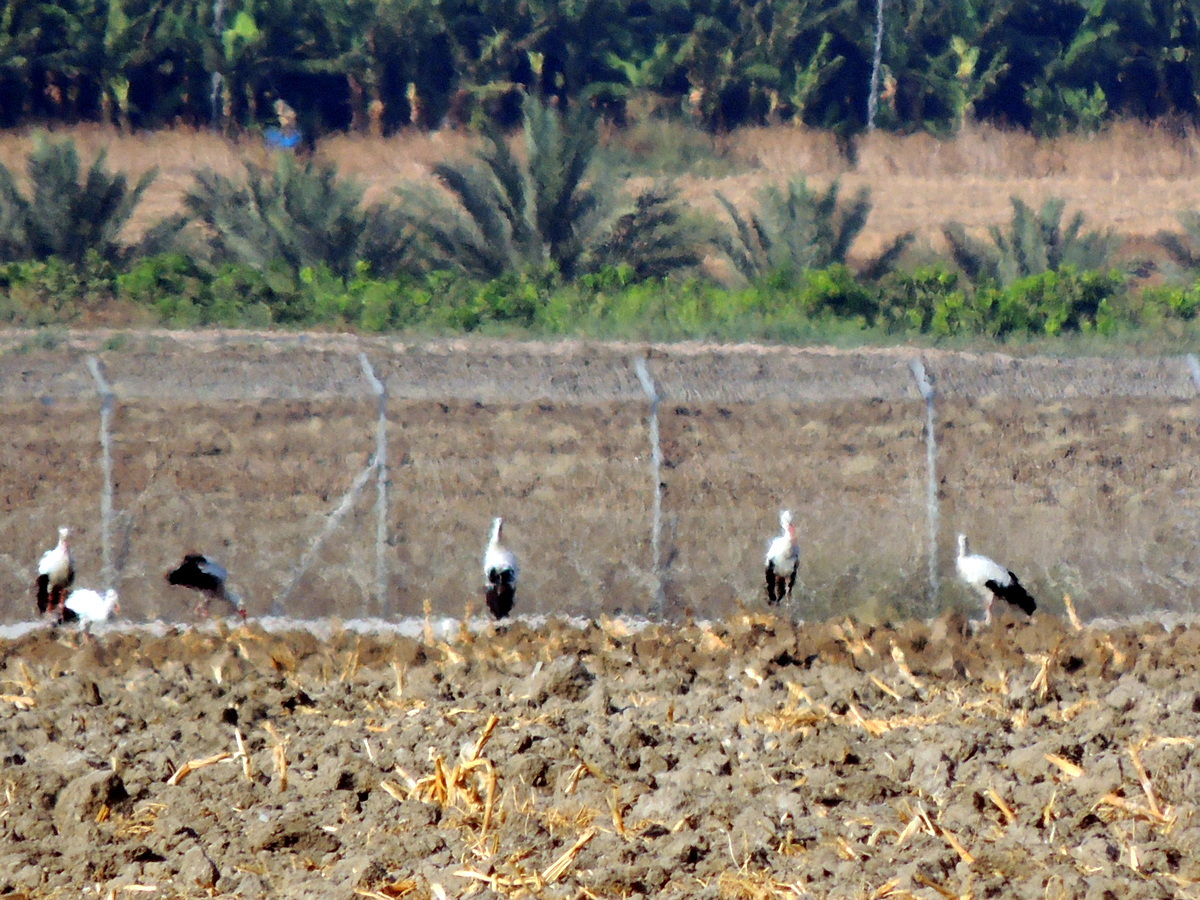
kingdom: Animalia
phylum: Chordata
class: Aves
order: Ciconiiformes
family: Ciconiidae
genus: Ciconia
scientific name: Ciconia ciconia
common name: White stork
